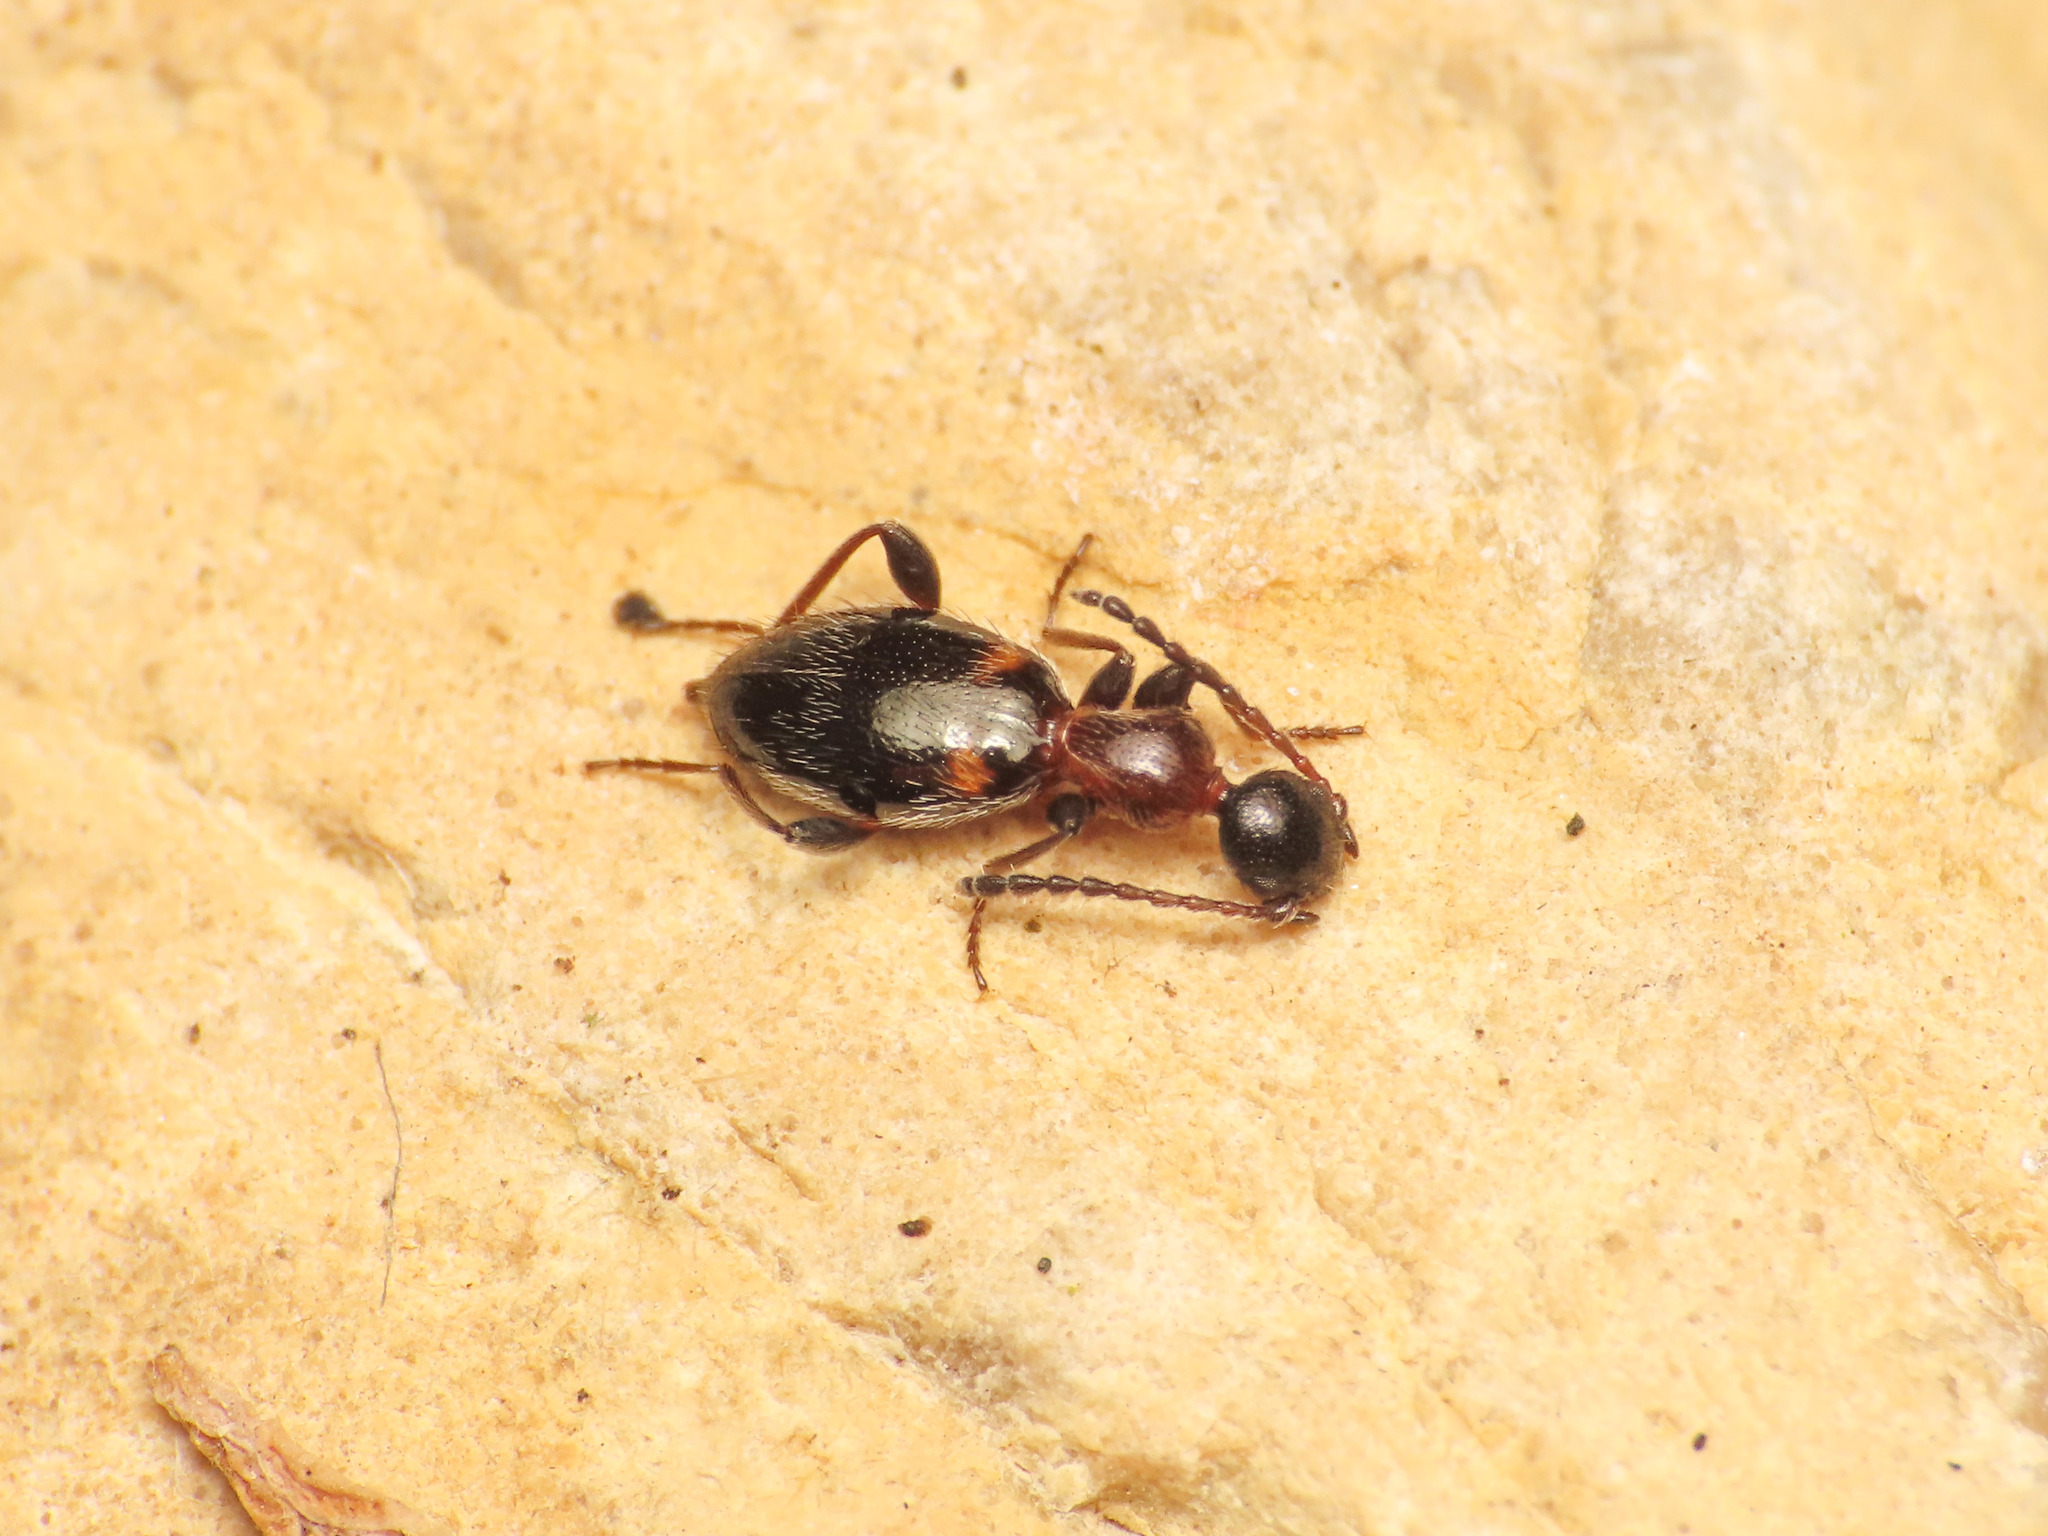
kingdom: Animalia
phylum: Arthropoda
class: Insecta
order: Coleoptera
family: Anthicidae
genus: Anthelephila
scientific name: Anthelephila pedestris
